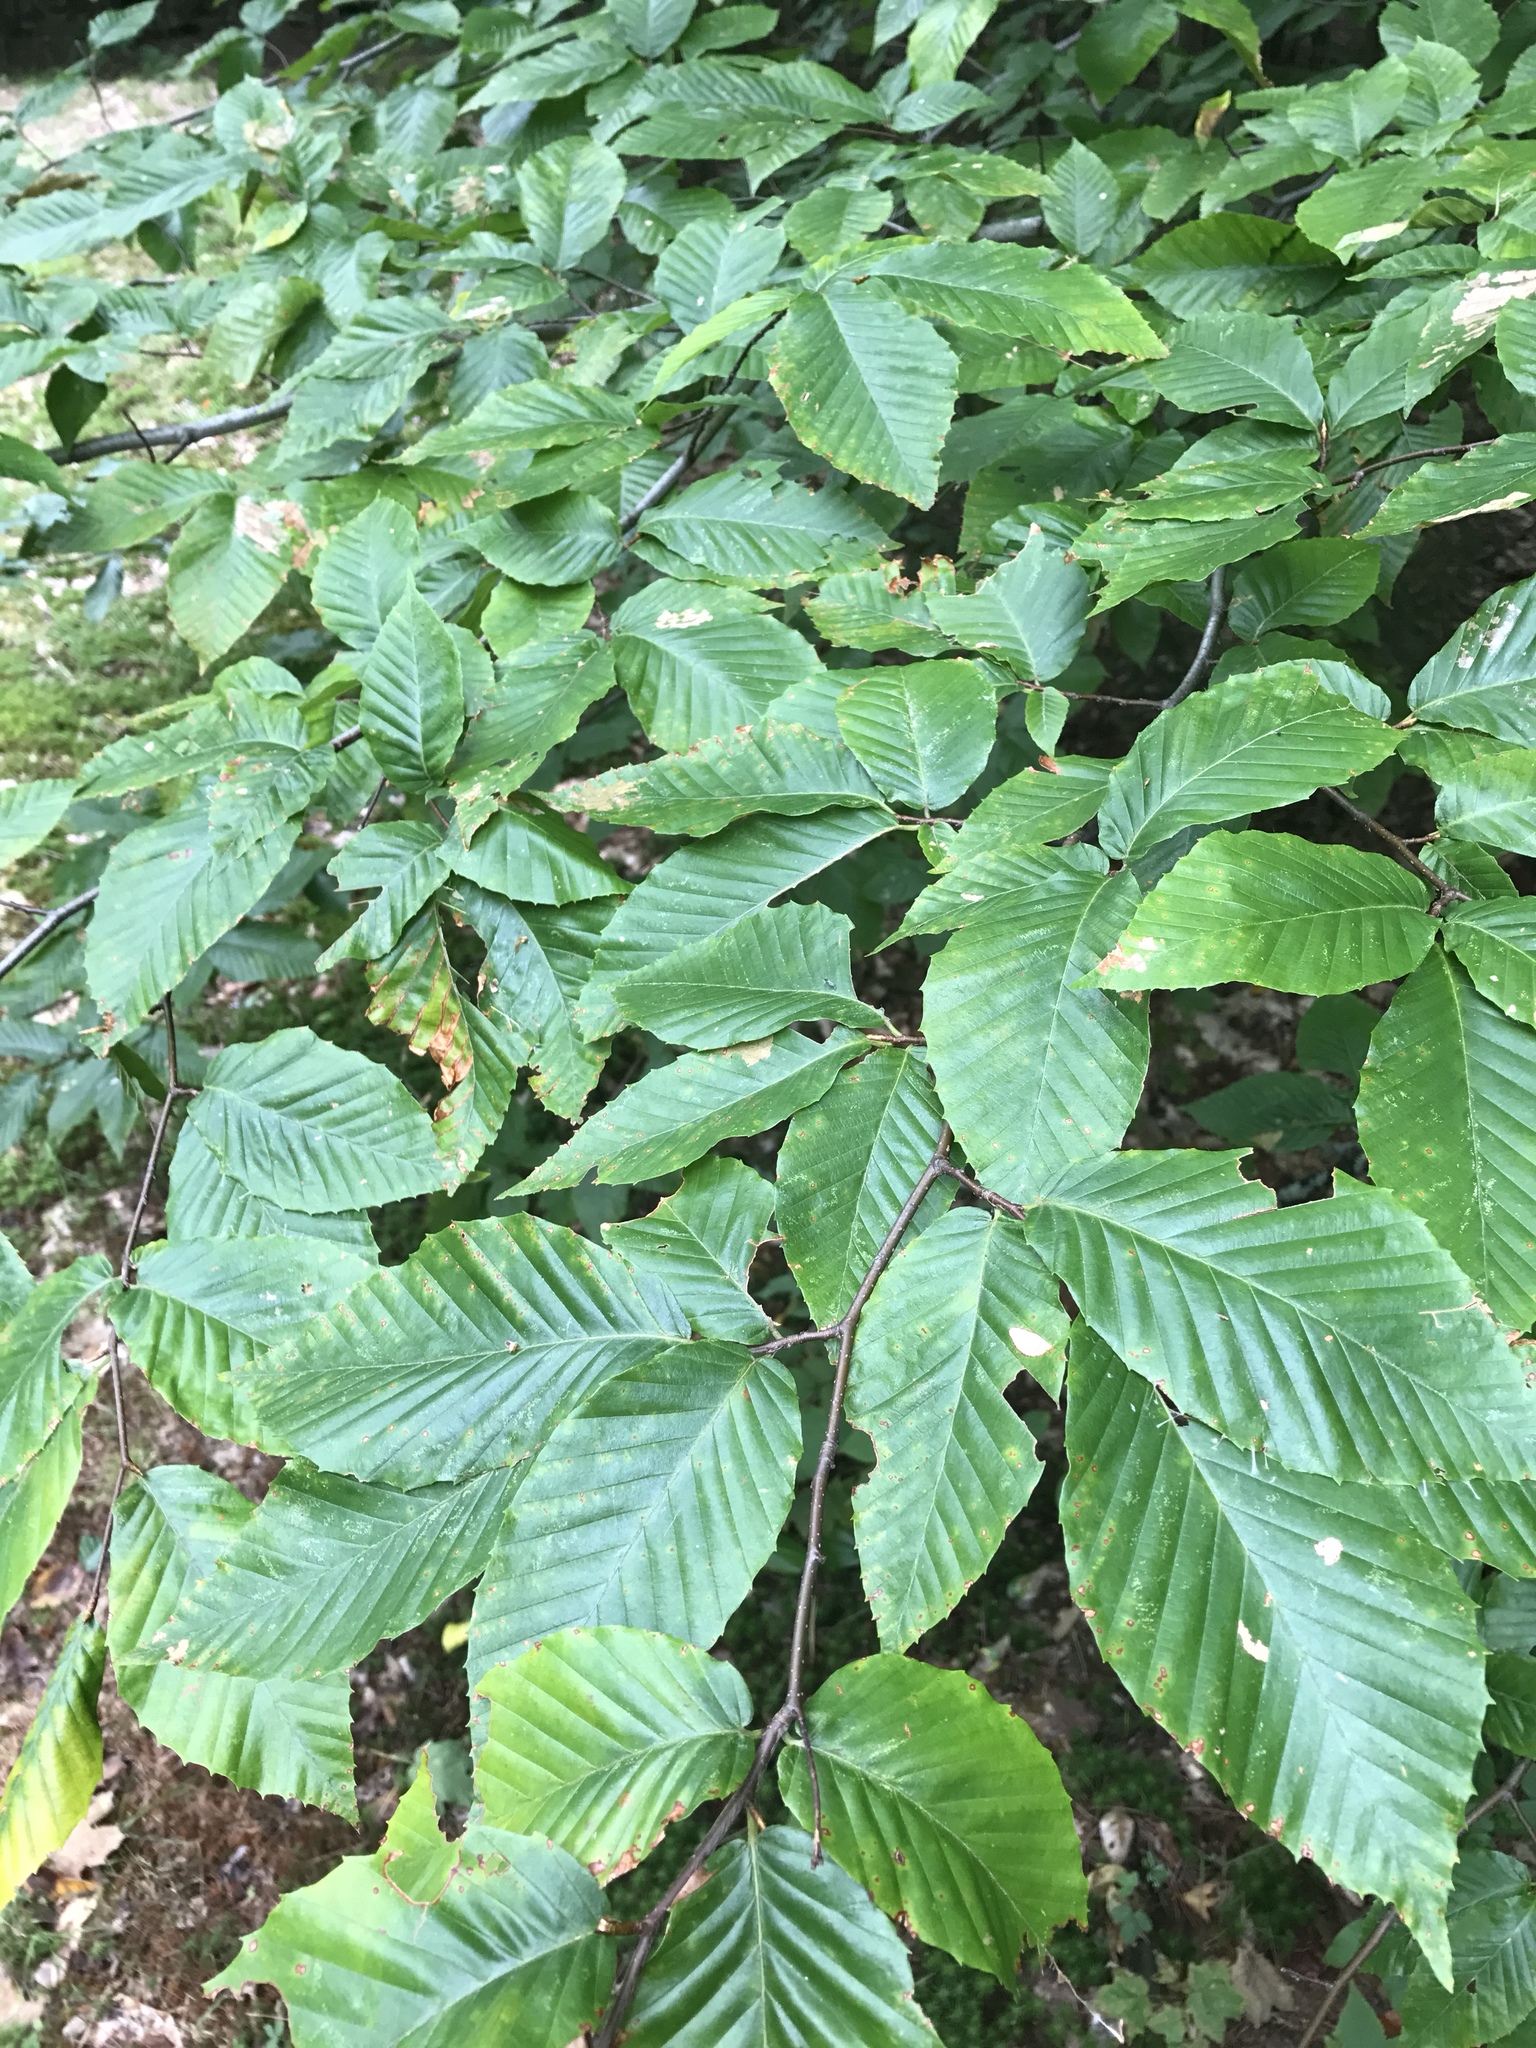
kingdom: Plantae
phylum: Tracheophyta
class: Magnoliopsida
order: Fagales
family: Fagaceae
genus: Fagus
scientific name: Fagus grandifolia
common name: American beech
